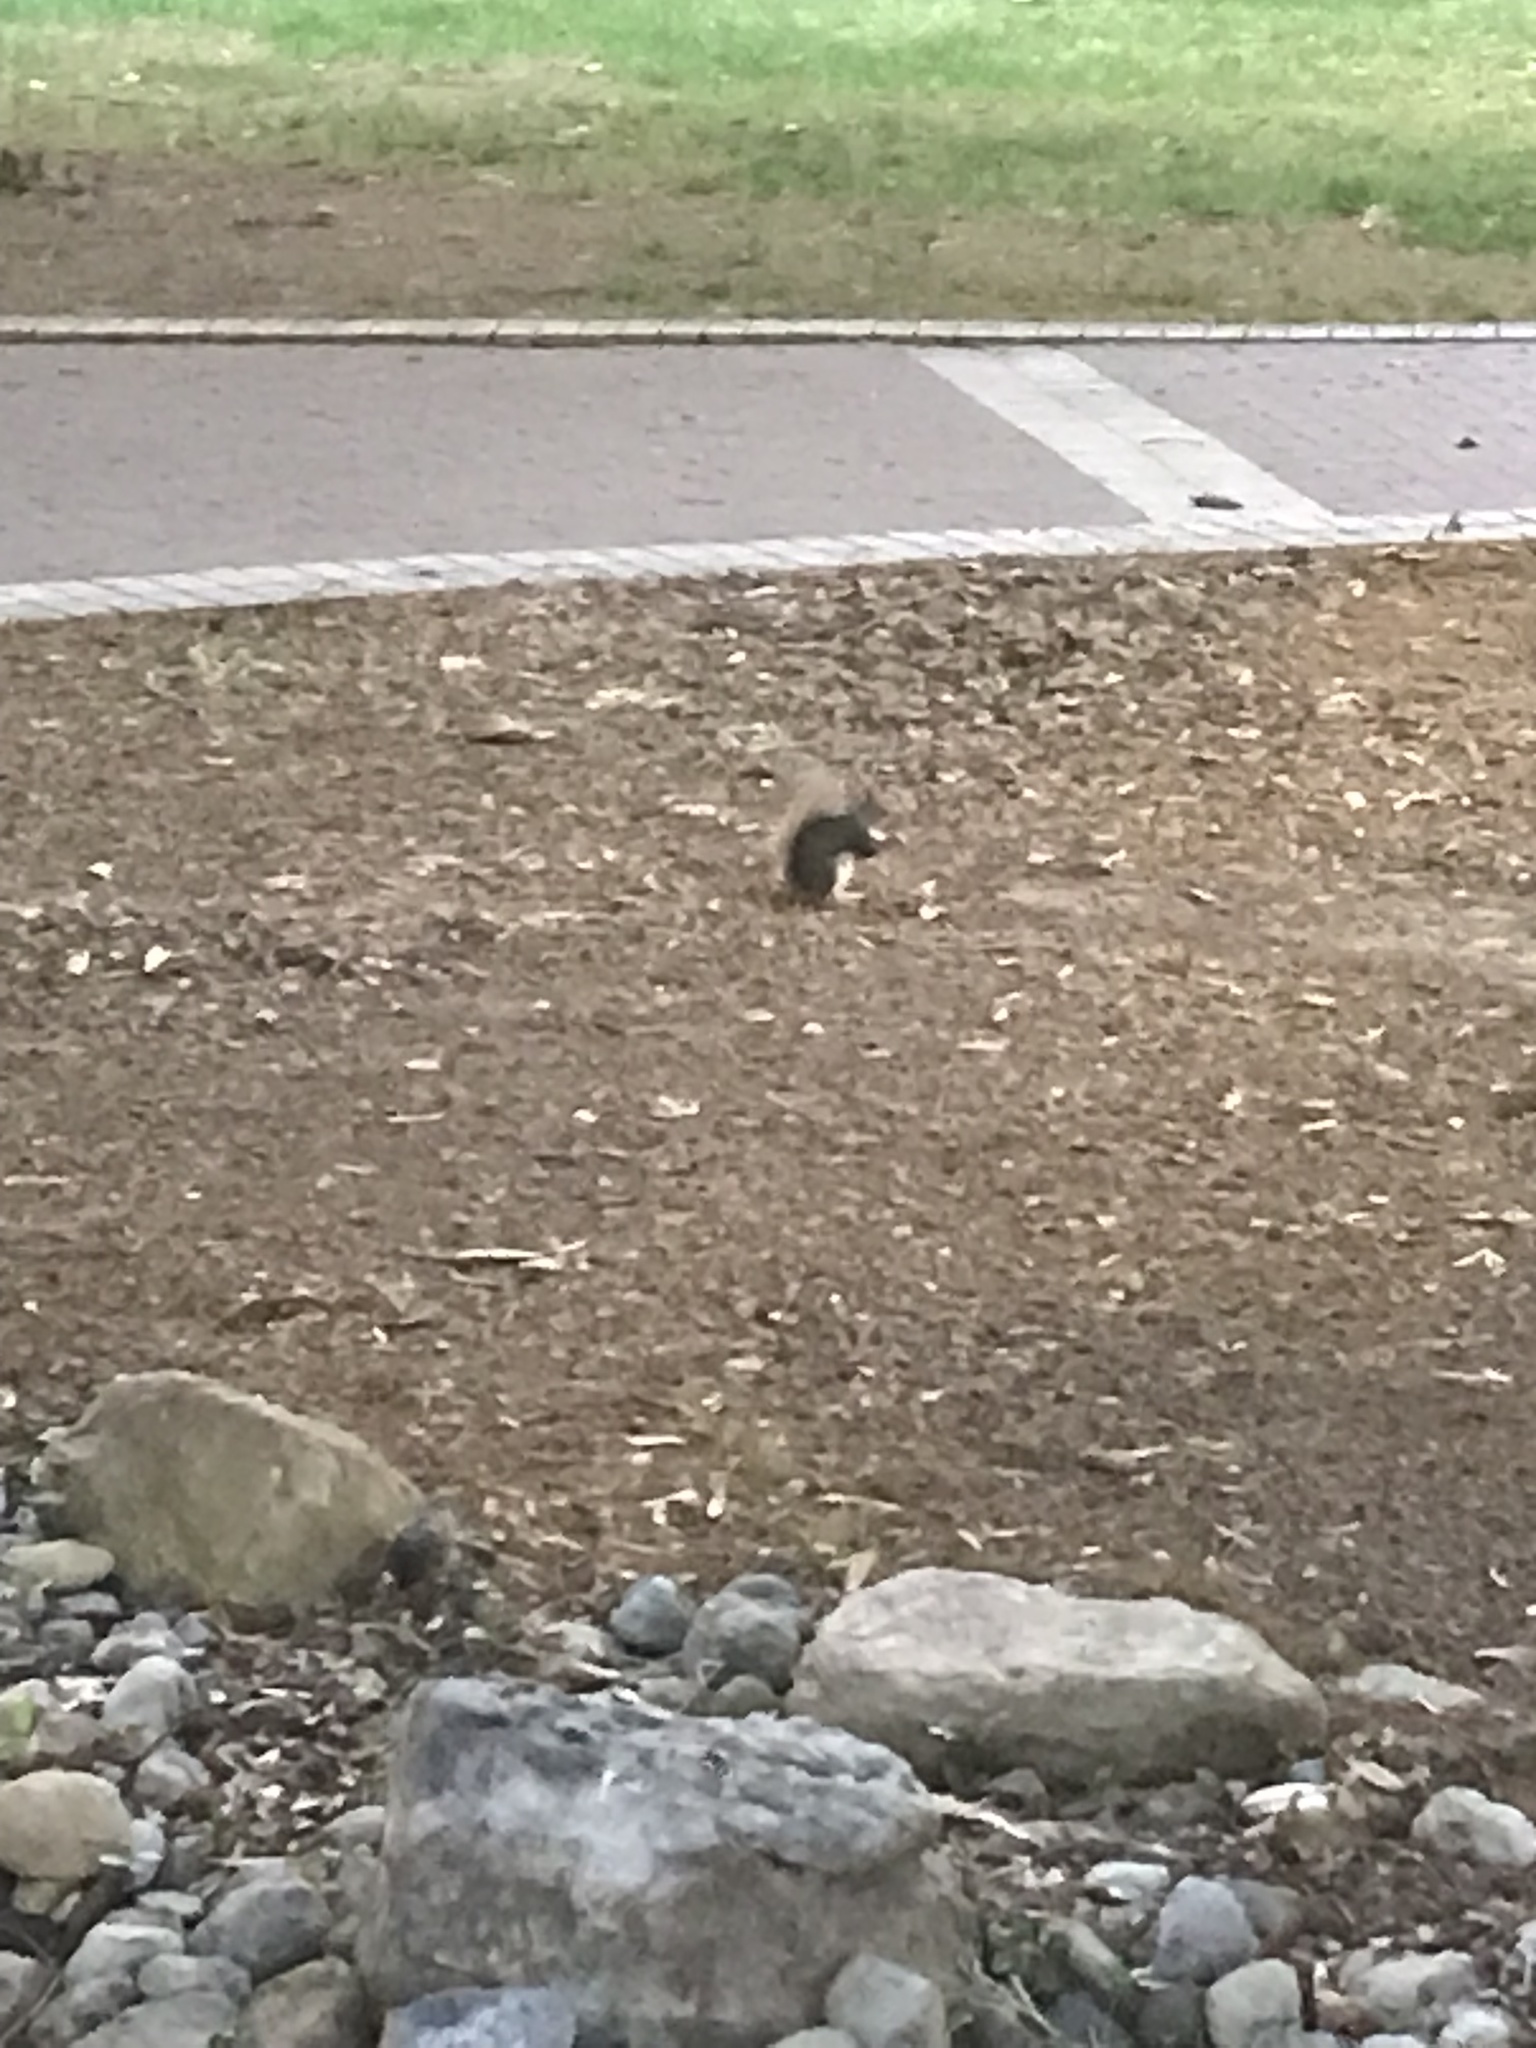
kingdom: Animalia
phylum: Chordata
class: Mammalia
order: Rodentia
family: Sciuridae
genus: Sciurus
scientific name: Sciurus carolinensis
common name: Eastern gray squirrel
